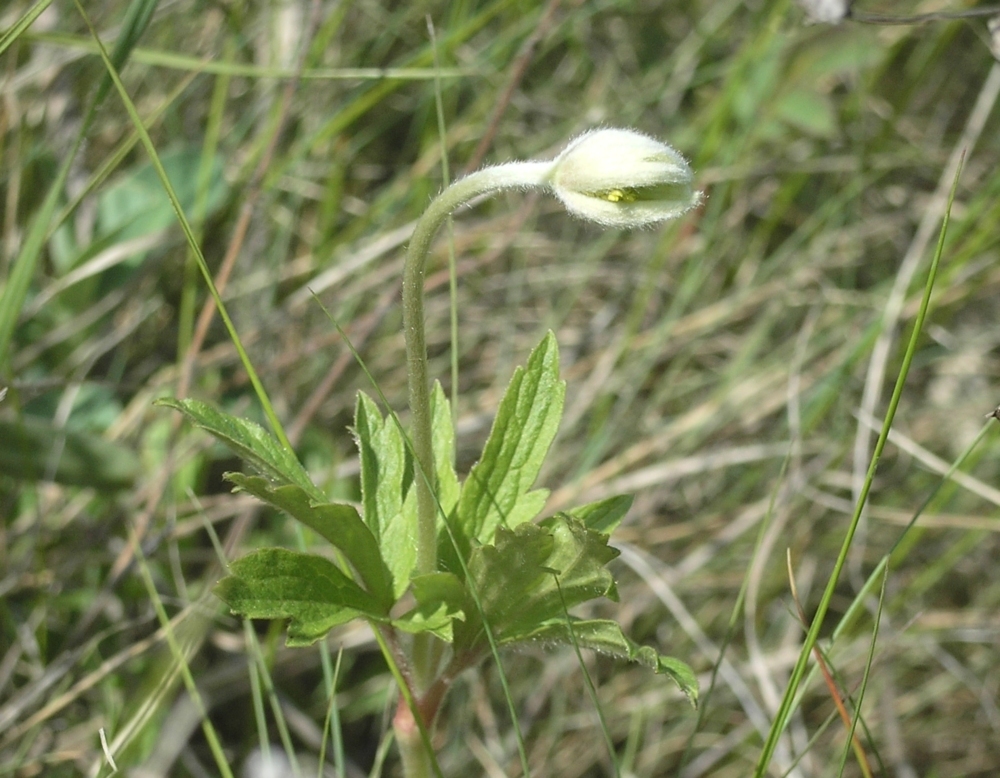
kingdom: Plantae
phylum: Tracheophyta
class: Magnoliopsida
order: Ranunculales
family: Ranunculaceae
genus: Anemone
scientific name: Anemone sylvestris
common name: Snowdrop anemone
